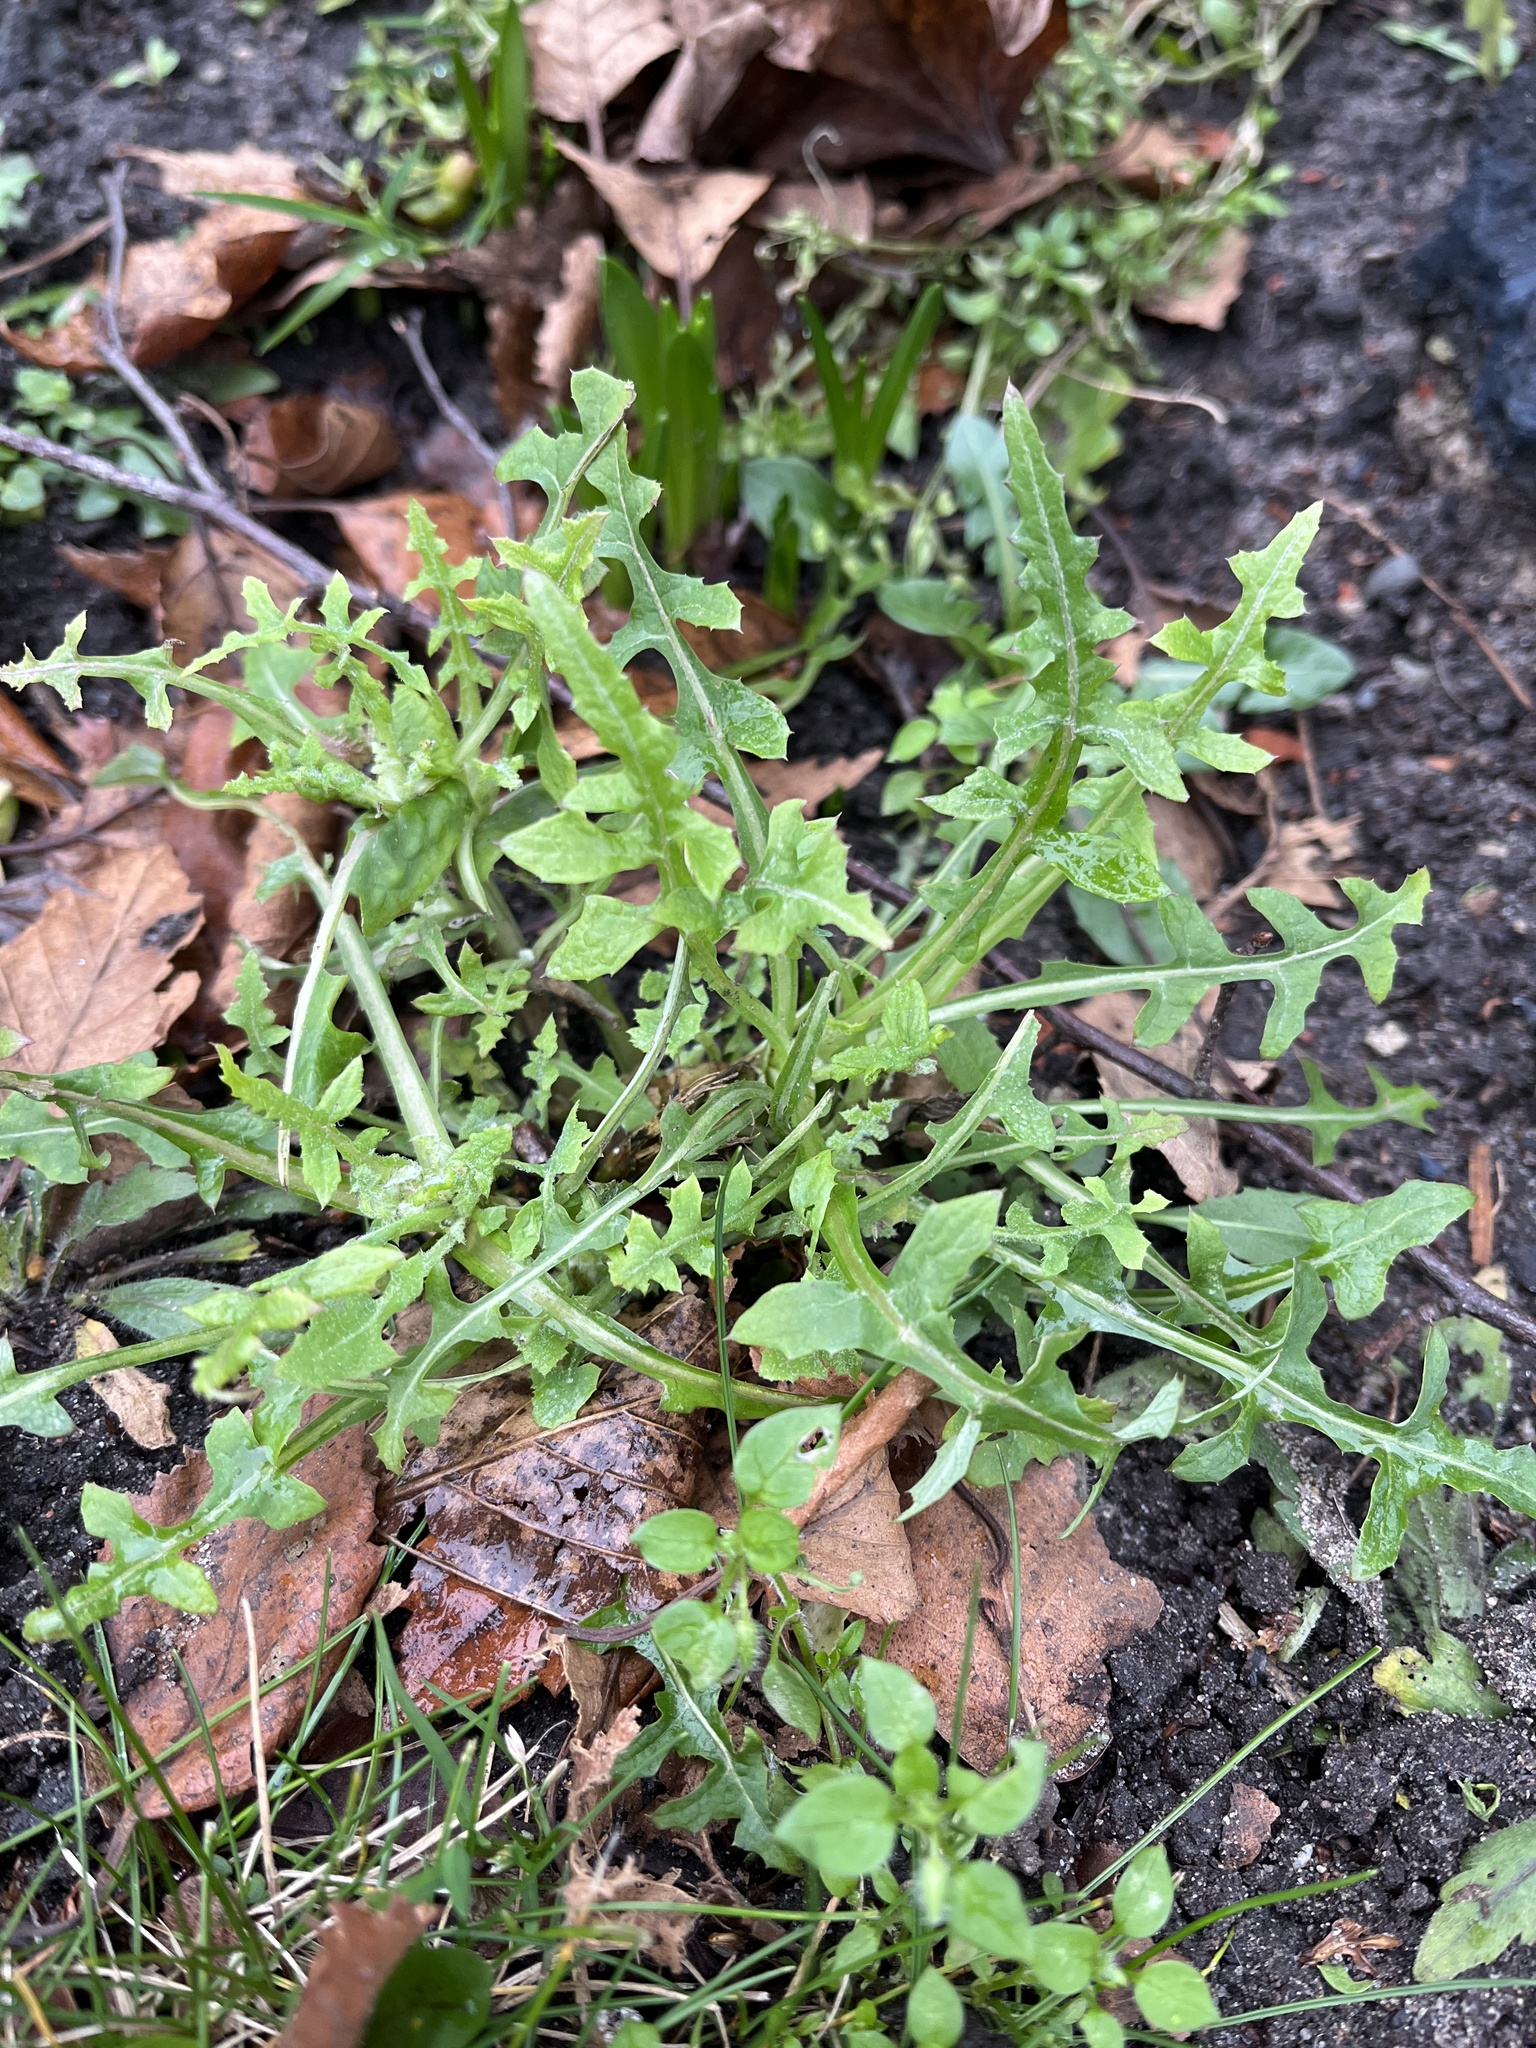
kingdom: Plantae
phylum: Tracheophyta
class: Magnoliopsida
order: Asterales
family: Asteraceae
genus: Sonchus
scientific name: Sonchus oleraceus
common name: Common sowthistle
